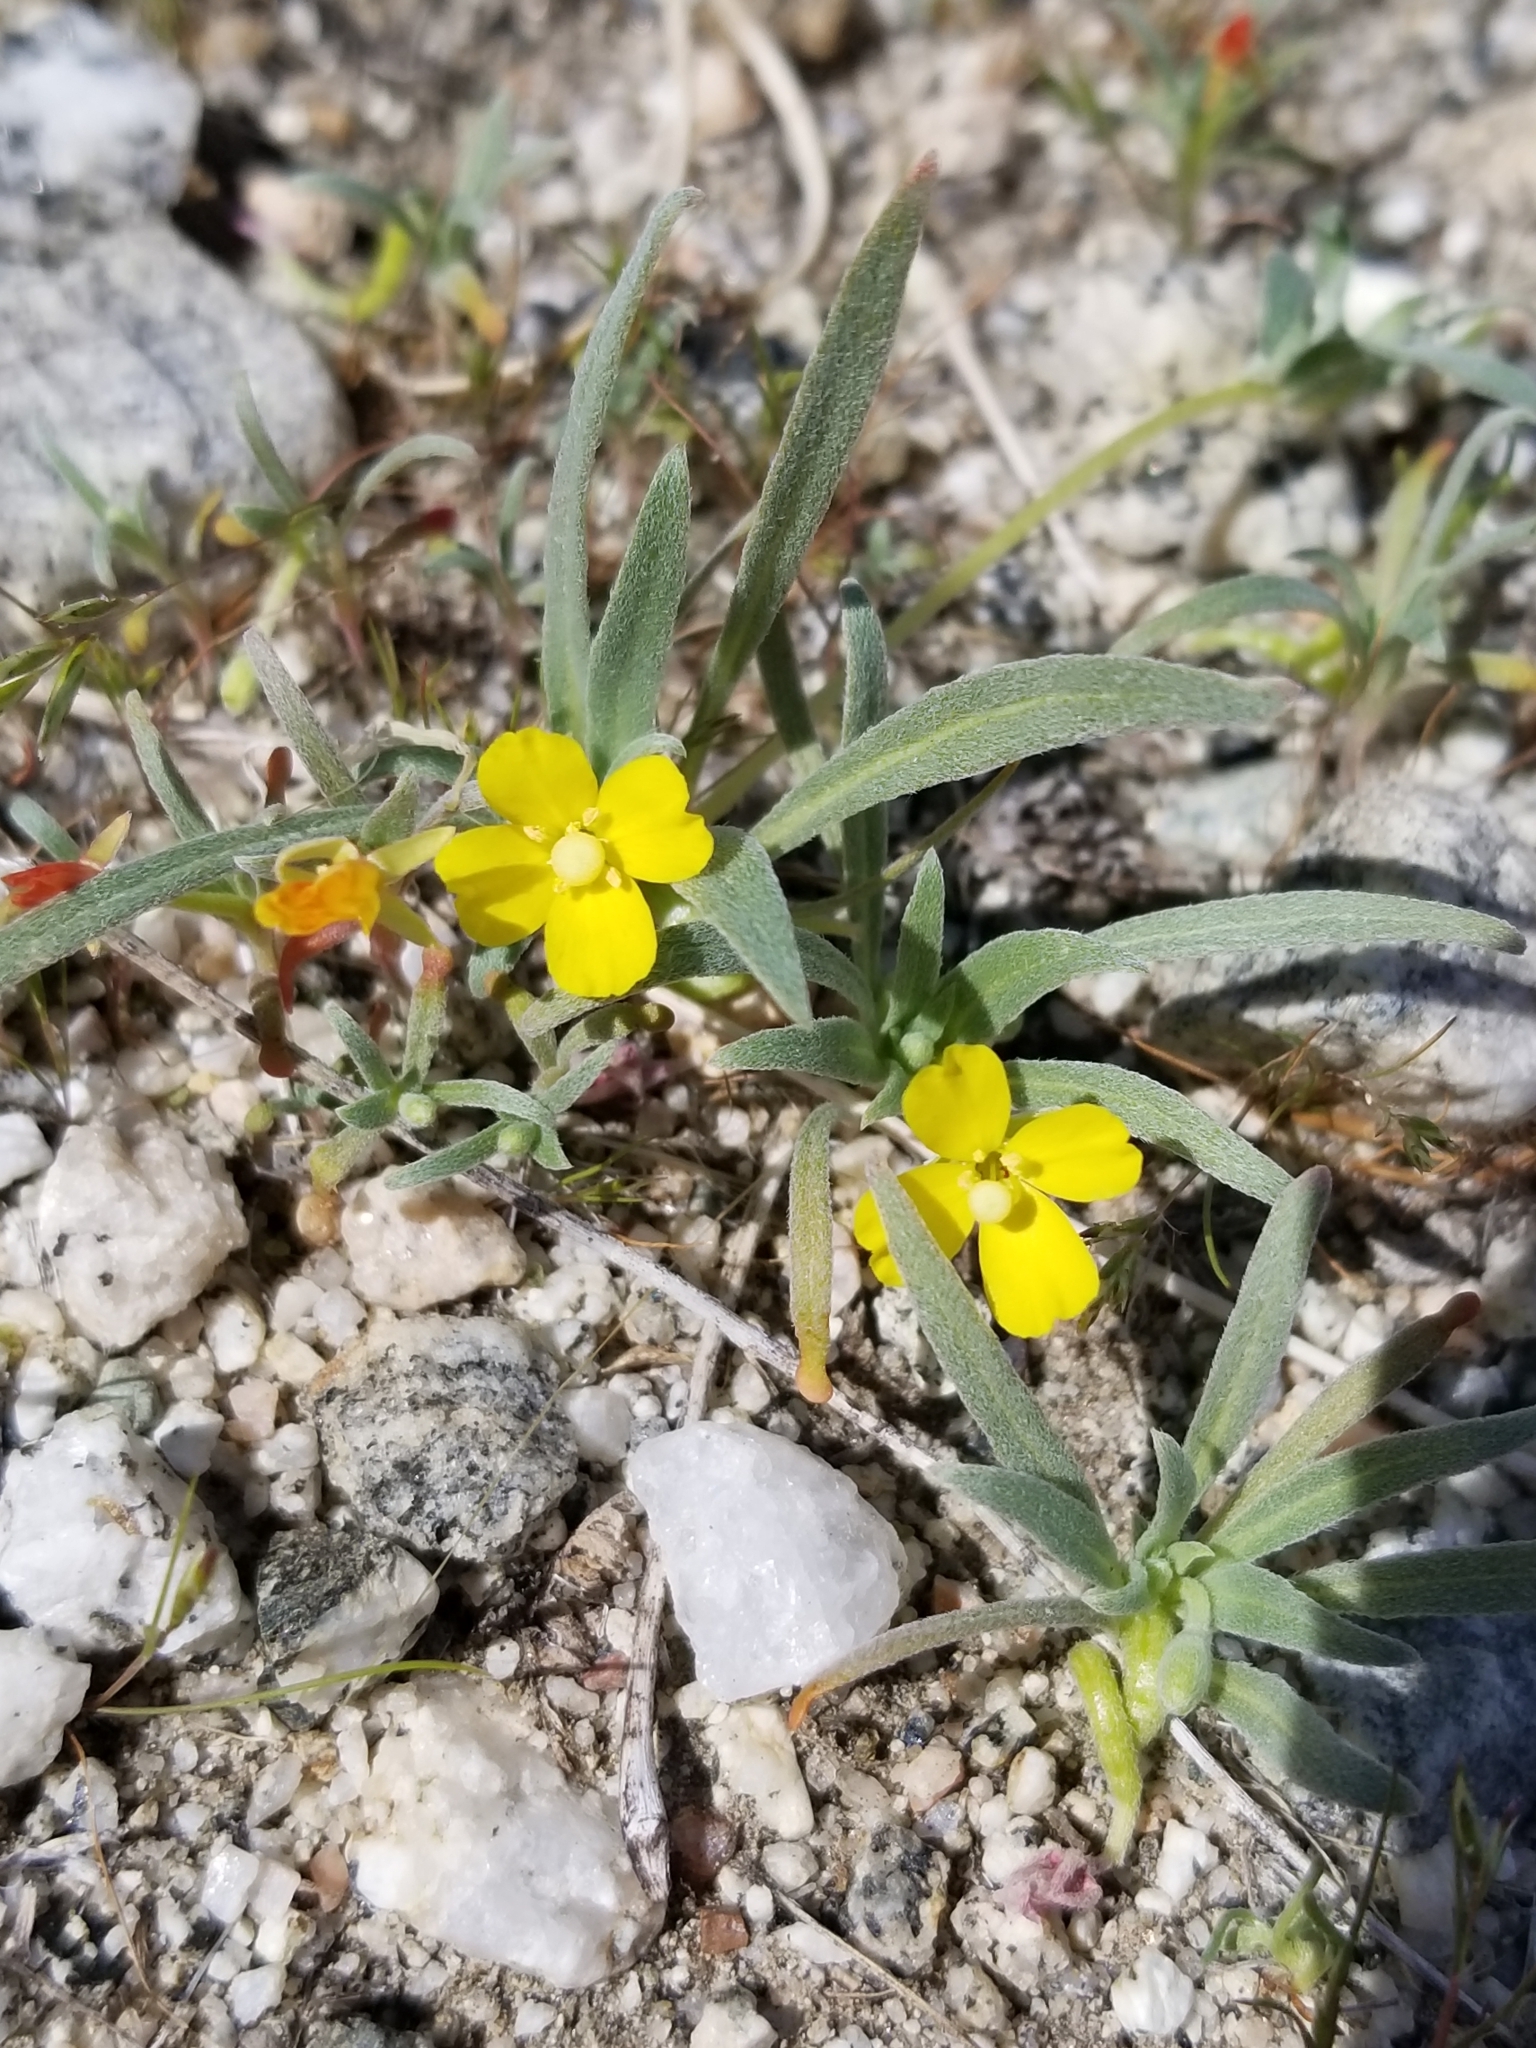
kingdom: Plantae
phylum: Tracheophyta
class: Magnoliopsida
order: Myrtales
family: Onagraceae
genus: Camissoniopsis
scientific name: Camissoniopsis pallida
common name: Paleyellow suncup
